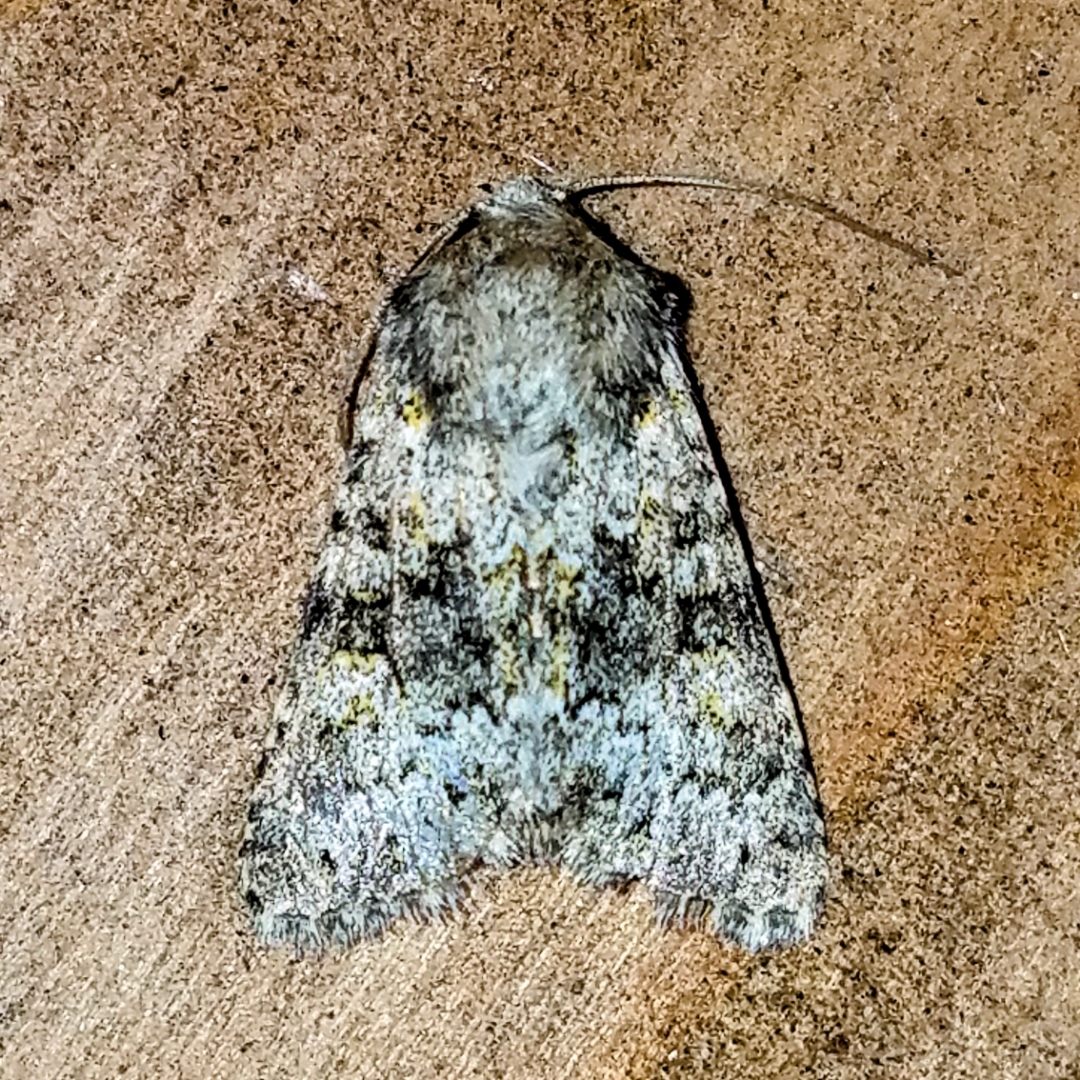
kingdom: Animalia
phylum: Arthropoda
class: Insecta
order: Lepidoptera
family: Noctuidae
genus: Hecatera
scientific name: Hecatera dysodea
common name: Small ranunculus
